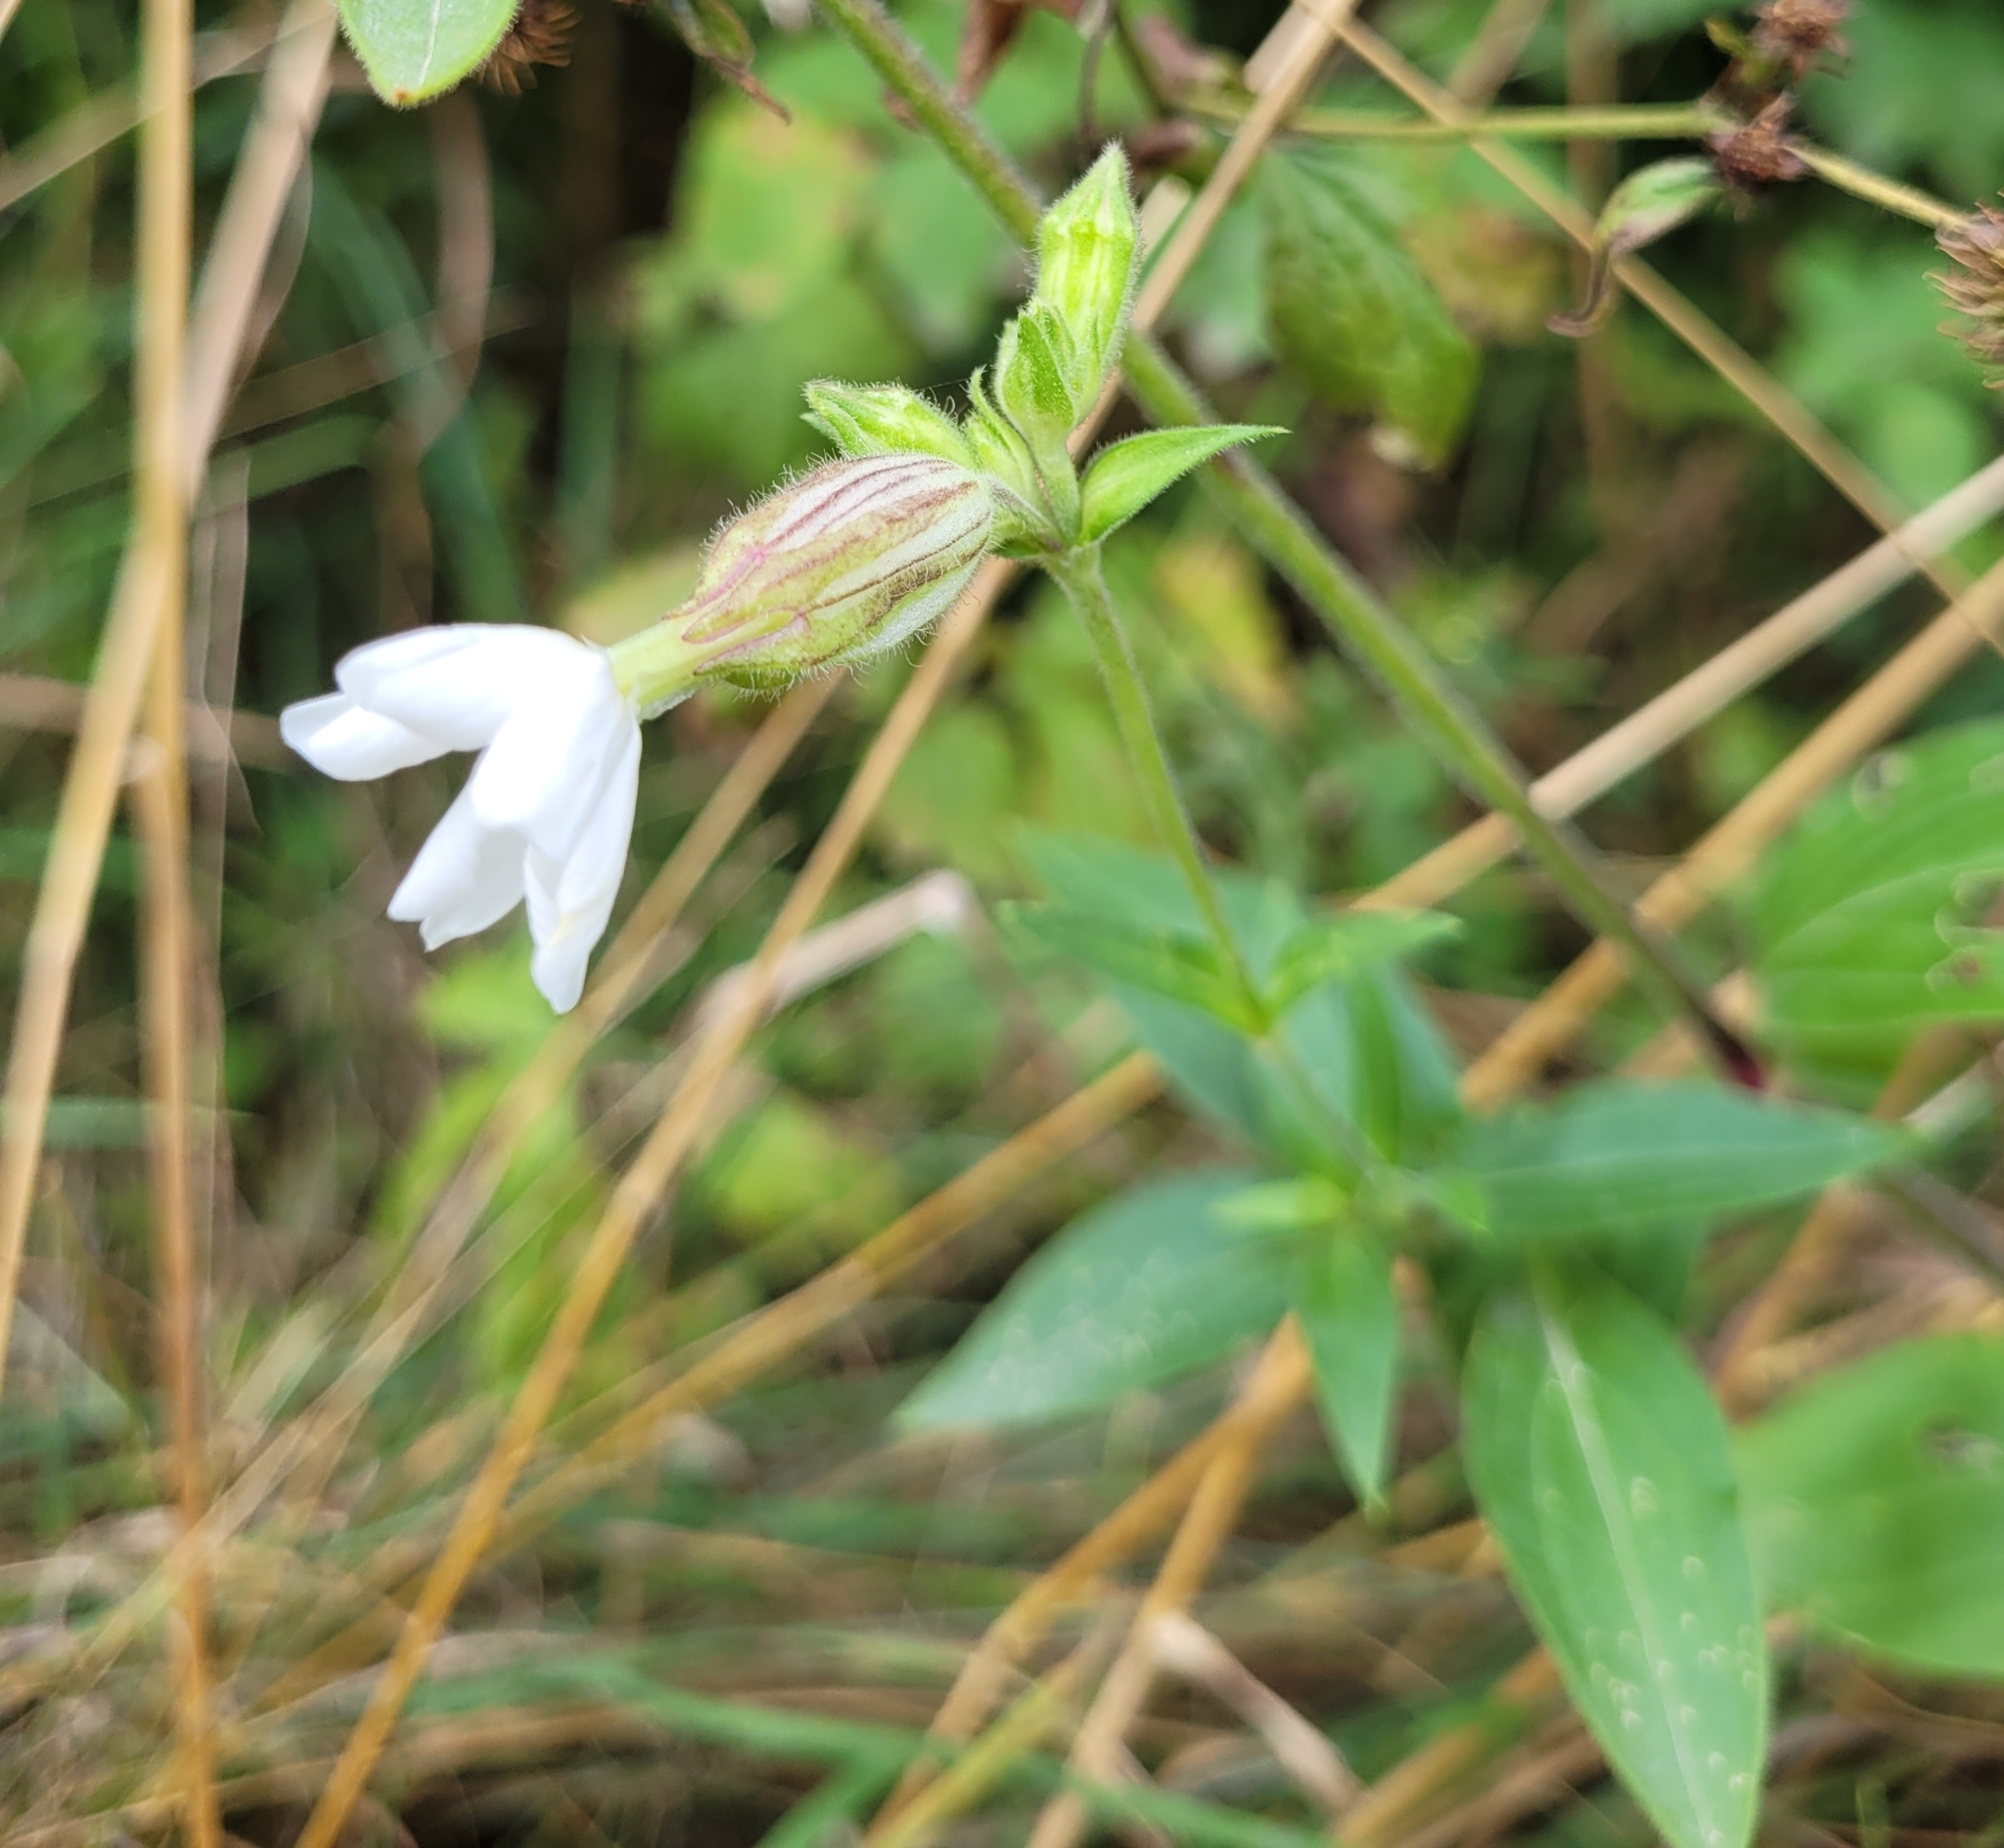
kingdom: Plantae
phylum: Tracheophyta
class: Magnoliopsida
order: Caryophyllales
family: Caryophyllaceae
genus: Silene
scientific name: Silene latifolia
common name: White campion
